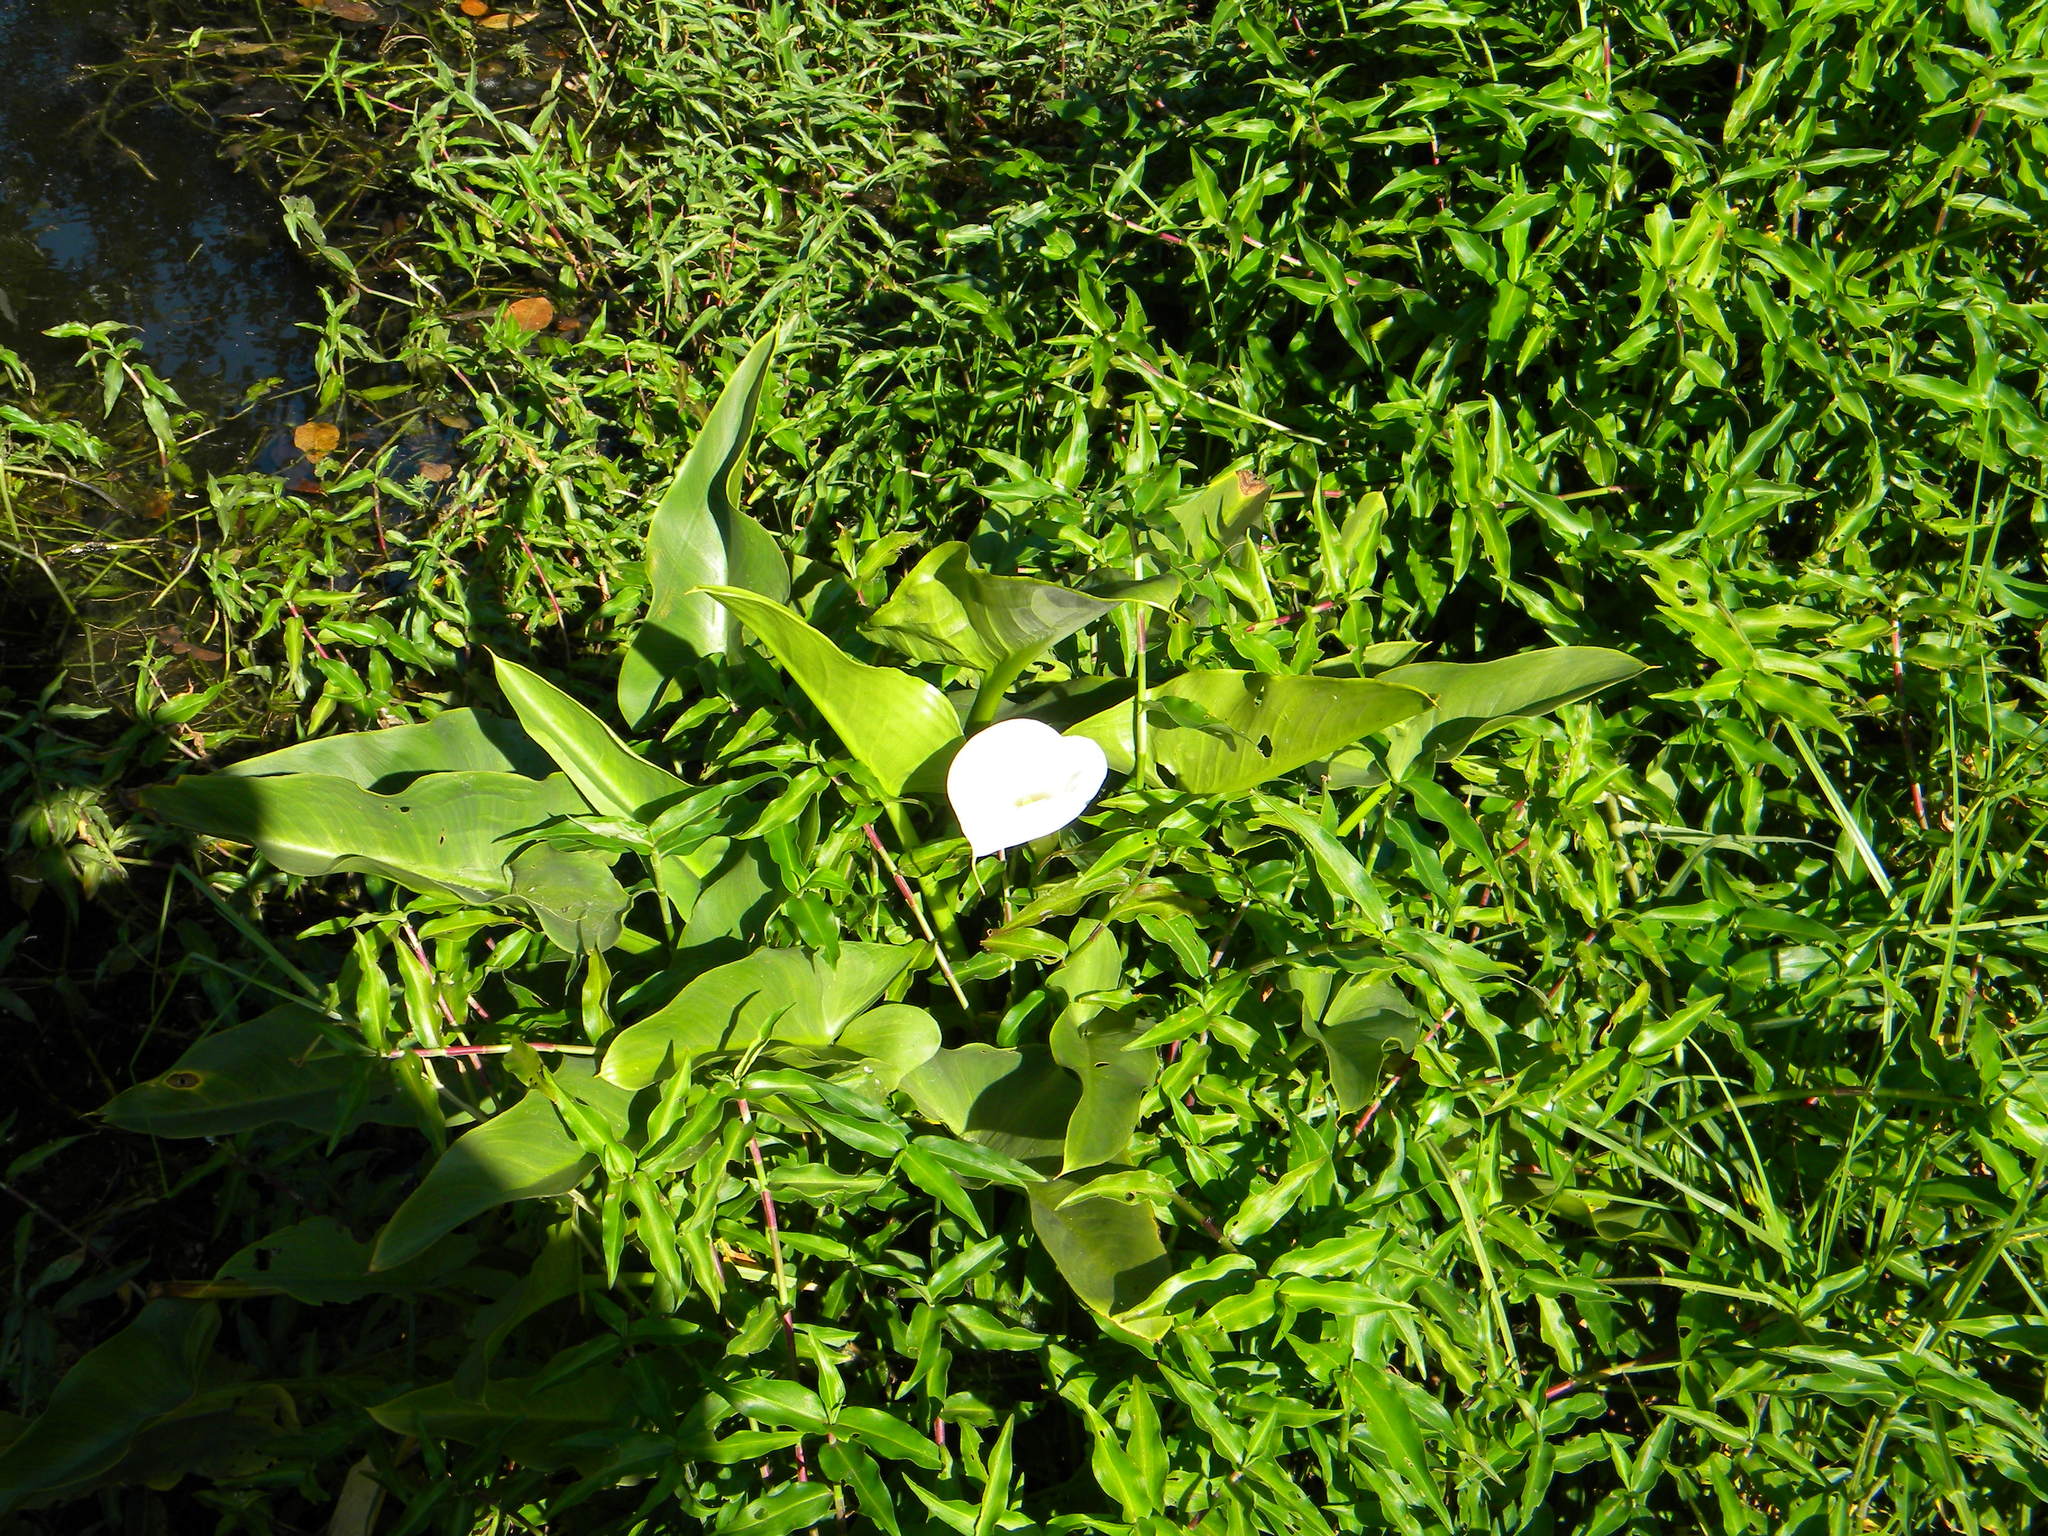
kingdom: Plantae
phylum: Tracheophyta
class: Liliopsida
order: Alismatales
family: Araceae
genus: Zantedeschia
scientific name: Zantedeschia aethiopica
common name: Altar-lily
